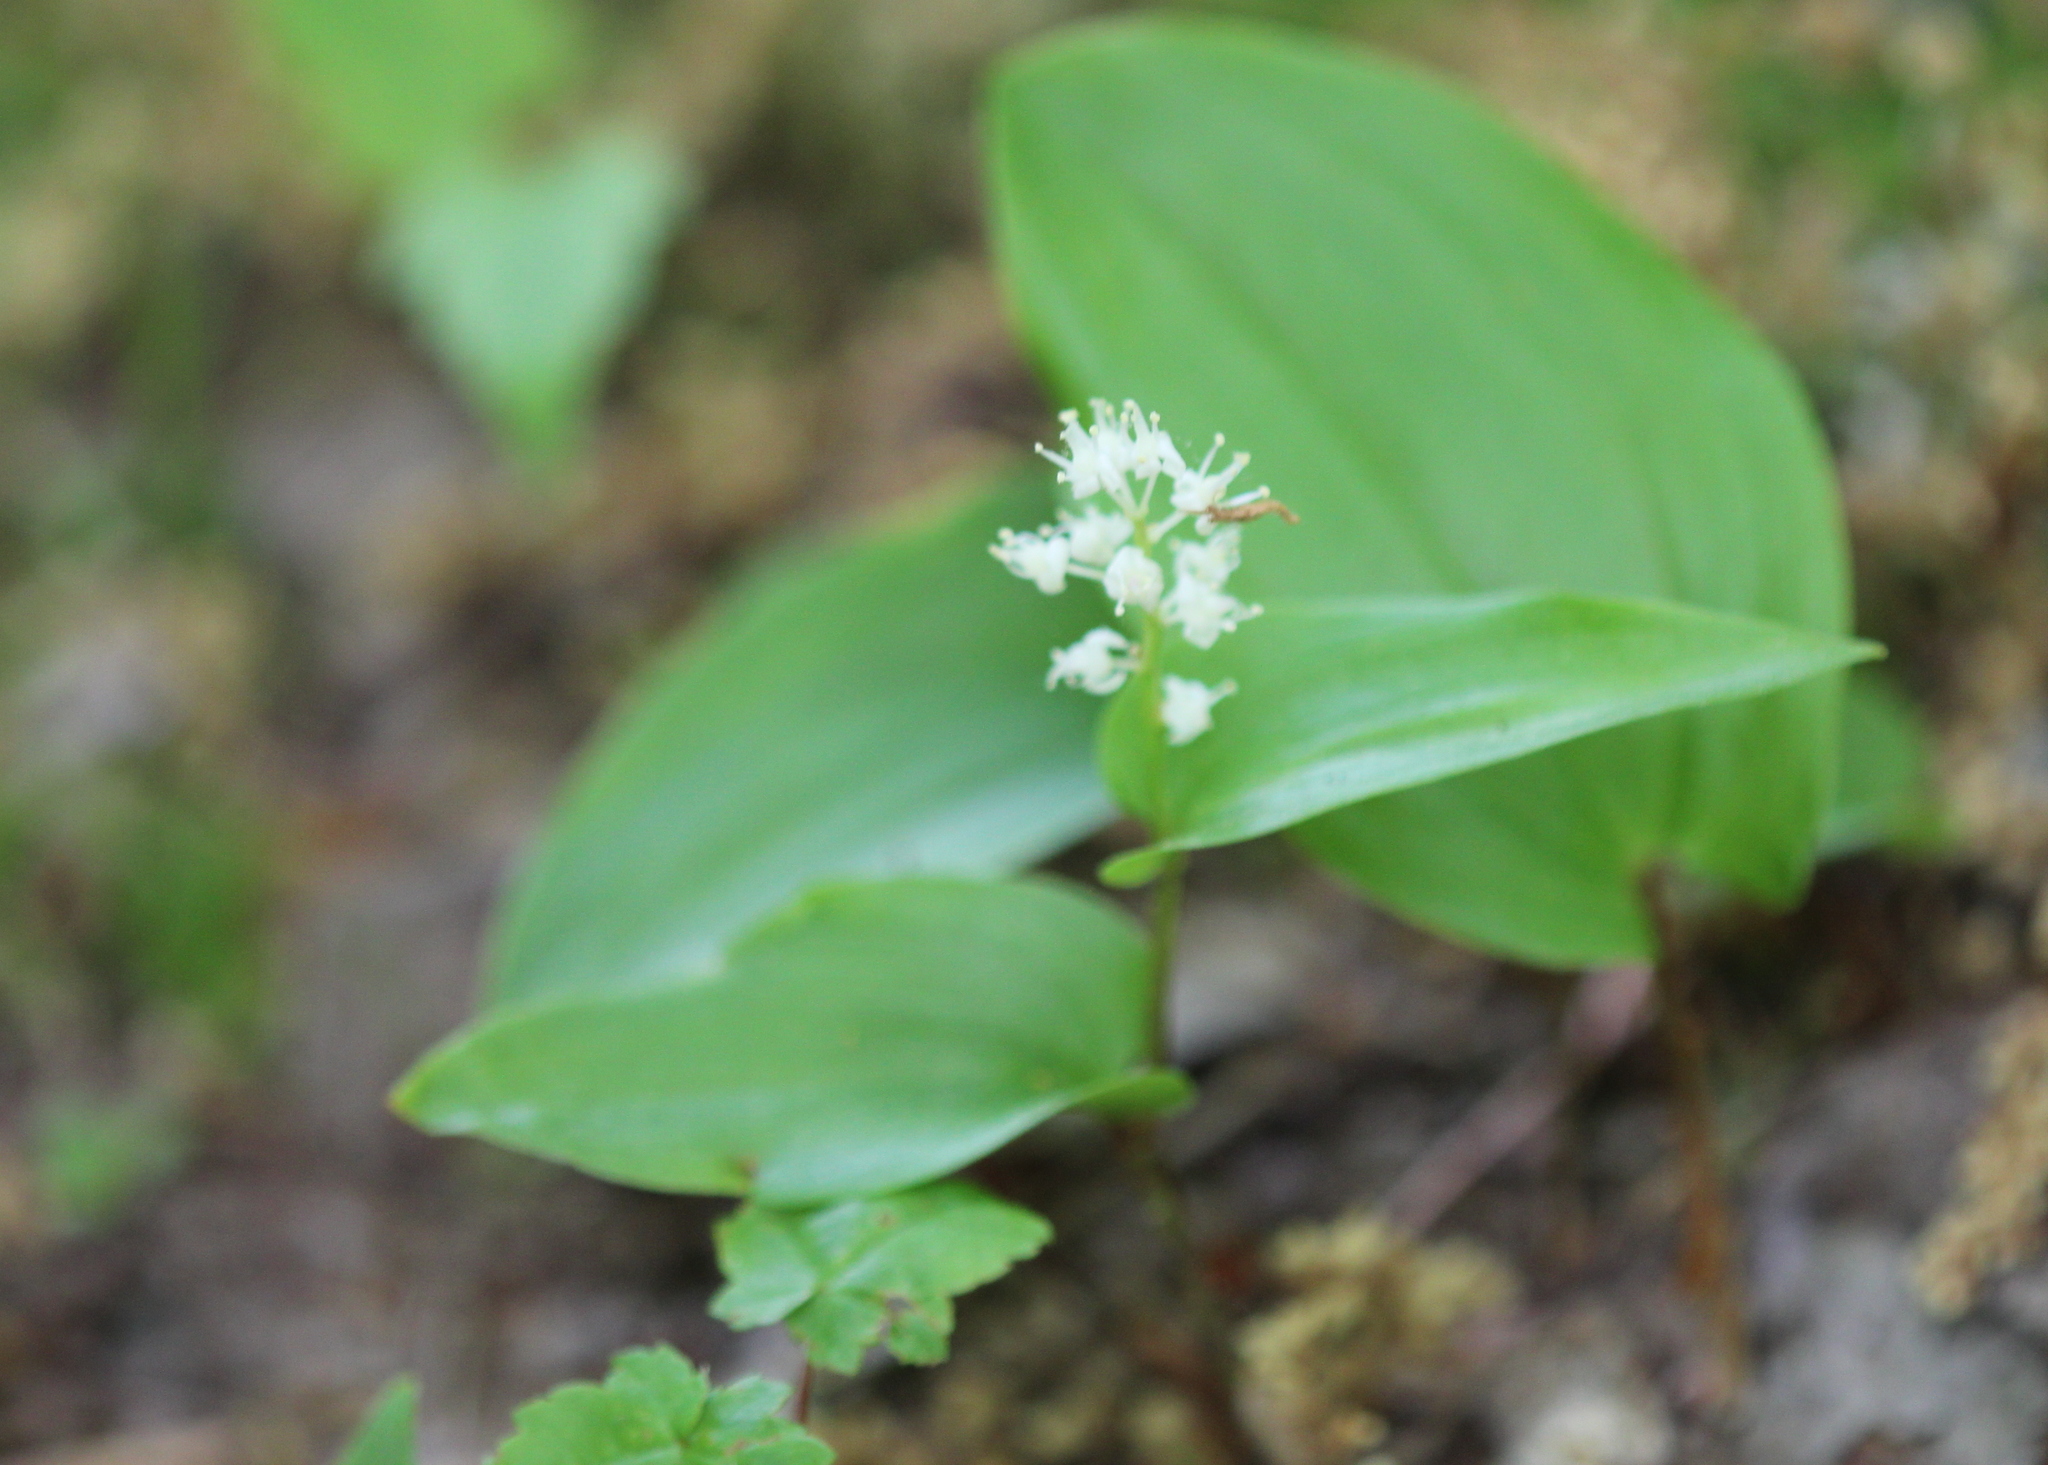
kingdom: Plantae
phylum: Tracheophyta
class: Liliopsida
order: Asparagales
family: Asparagaceae
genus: Maianthemum
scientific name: Maianthemum canadense
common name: False lily-of-the-valley
